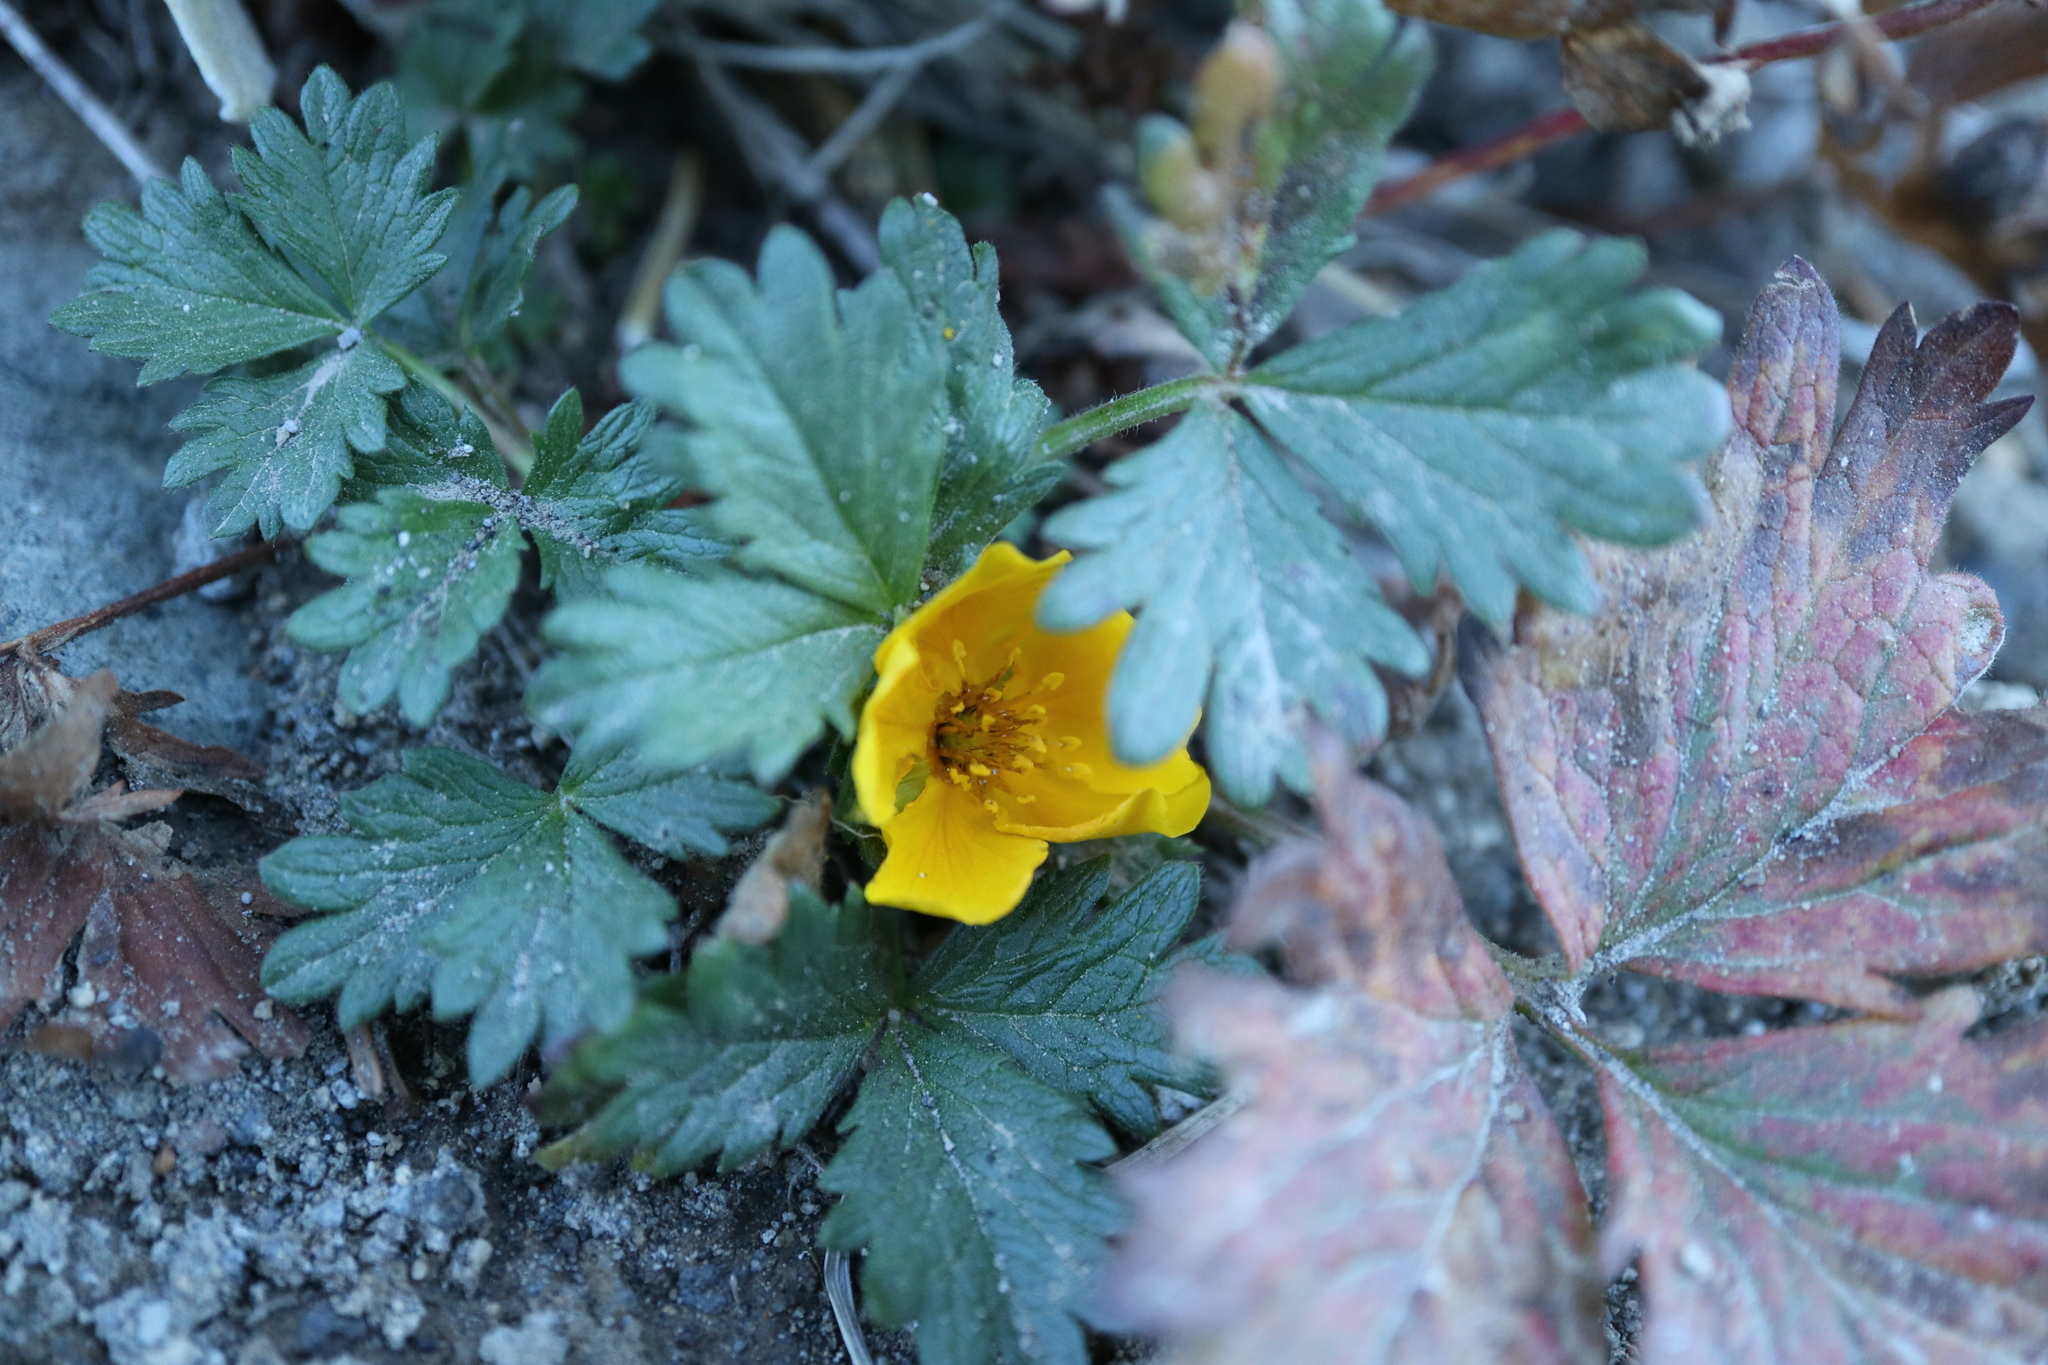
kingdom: Plantae
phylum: Tracheophyta
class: Magnoliopsida
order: Rosales
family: Rosaceae
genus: Potentilla
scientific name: Potentilla flabellifolia
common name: Mount rainier cinquefoil
